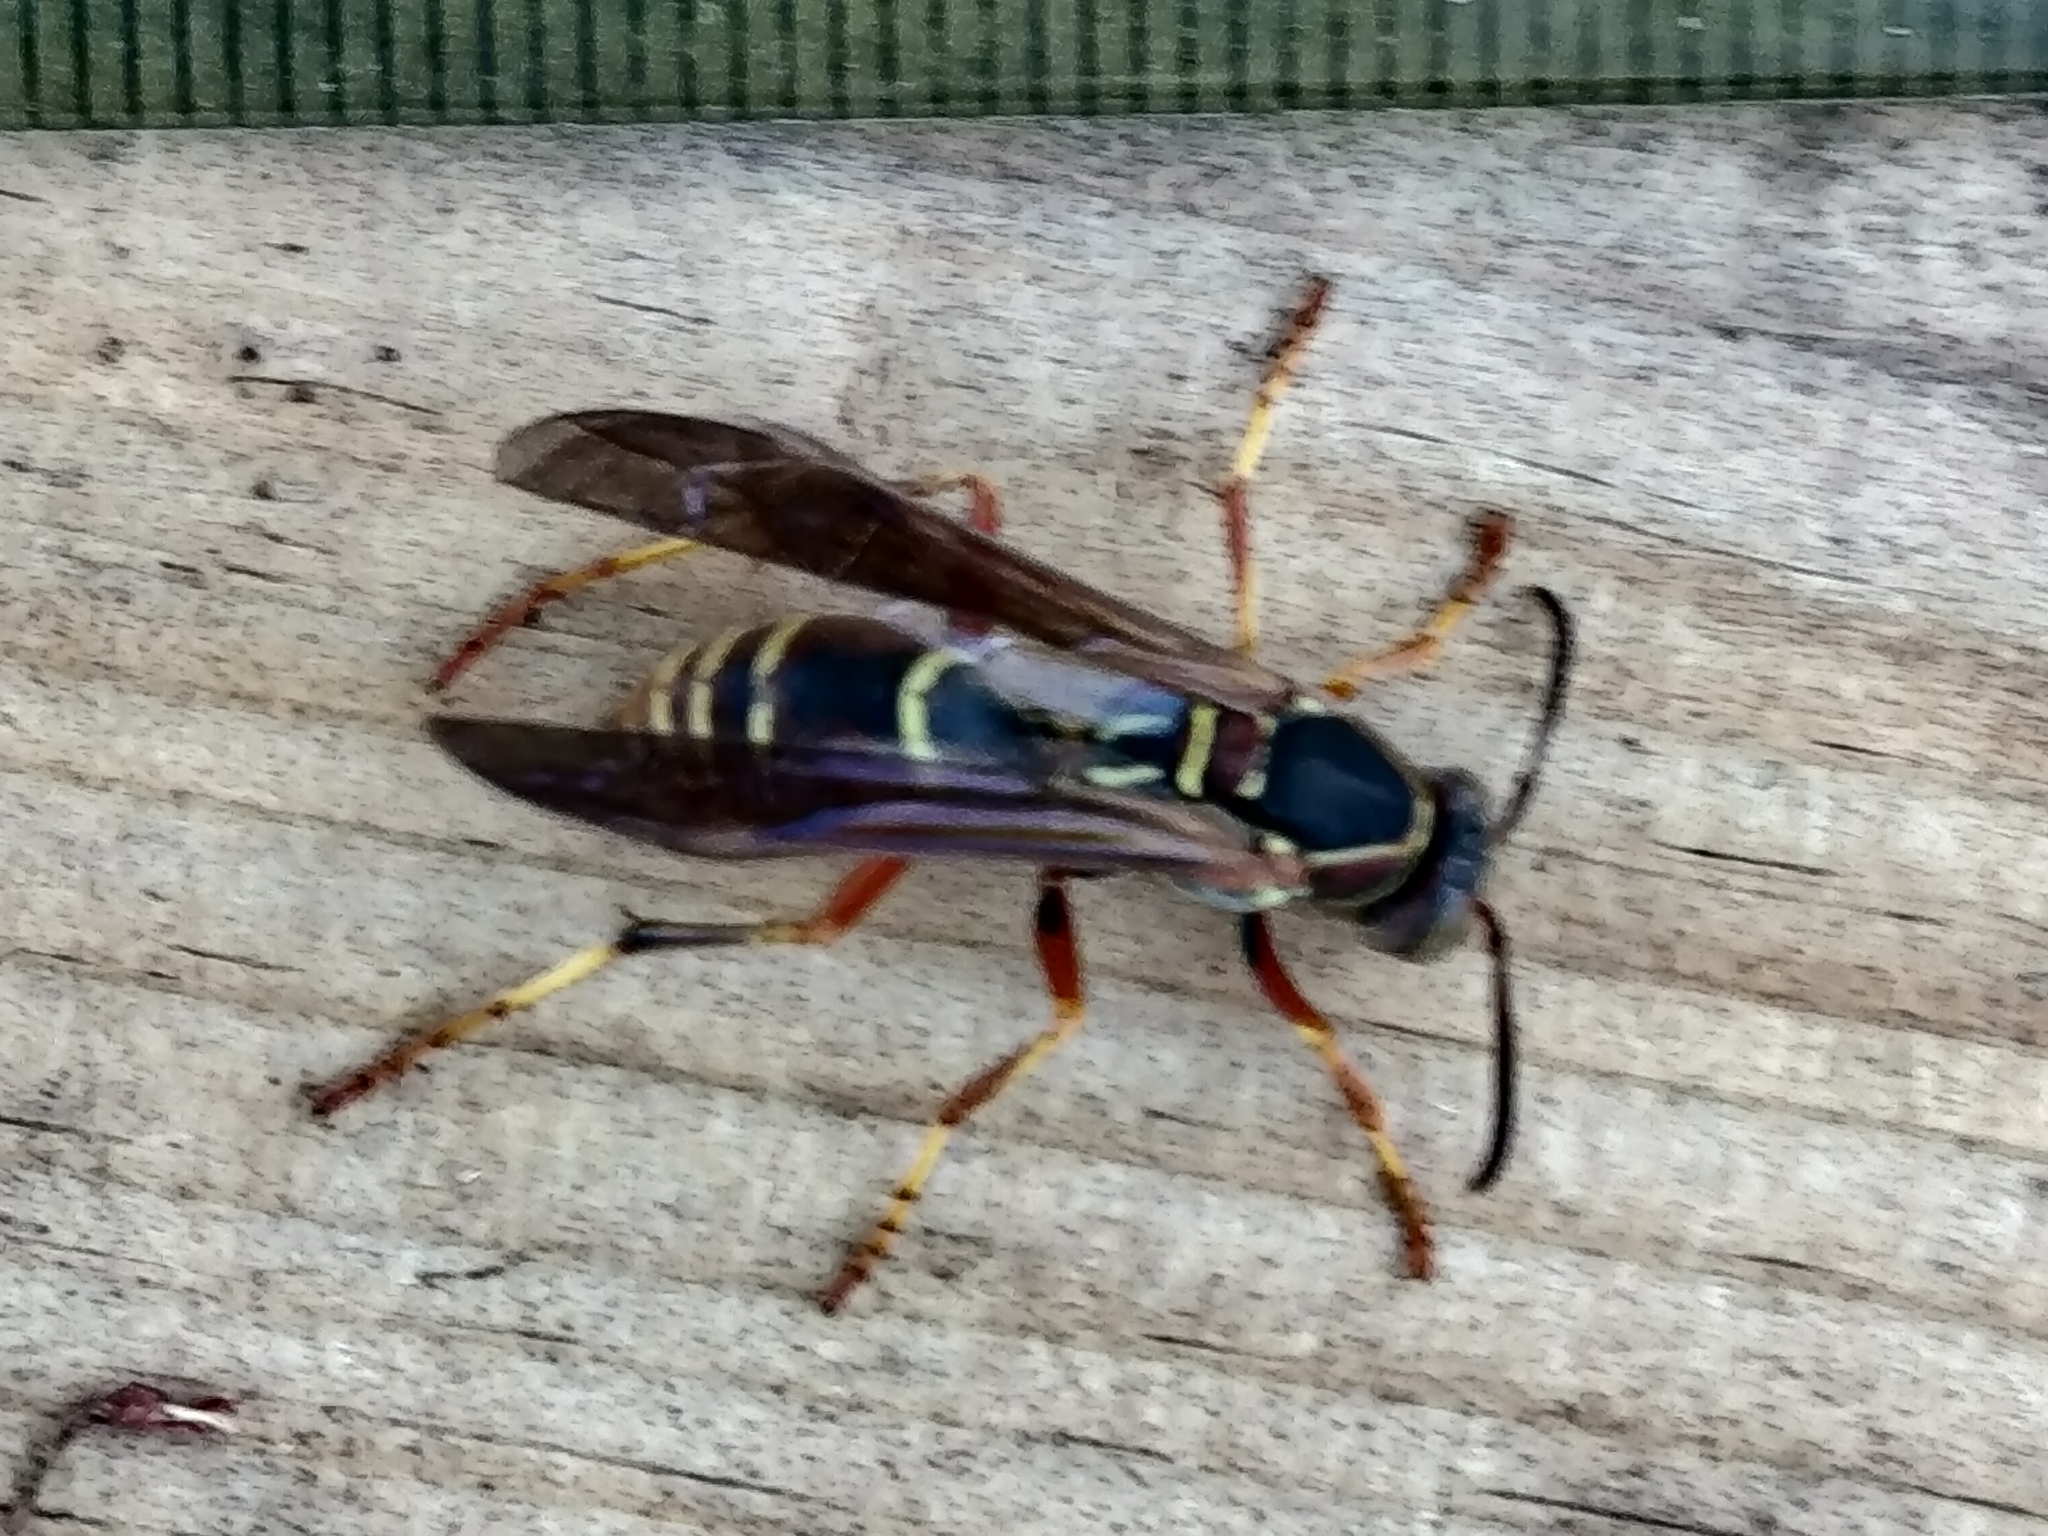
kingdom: Animalia
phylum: Arthropoda
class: Insecta
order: Hymenoptera
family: Eumenidae
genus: Polistes
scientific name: Polistes fuscatus
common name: Dark paper wasp
